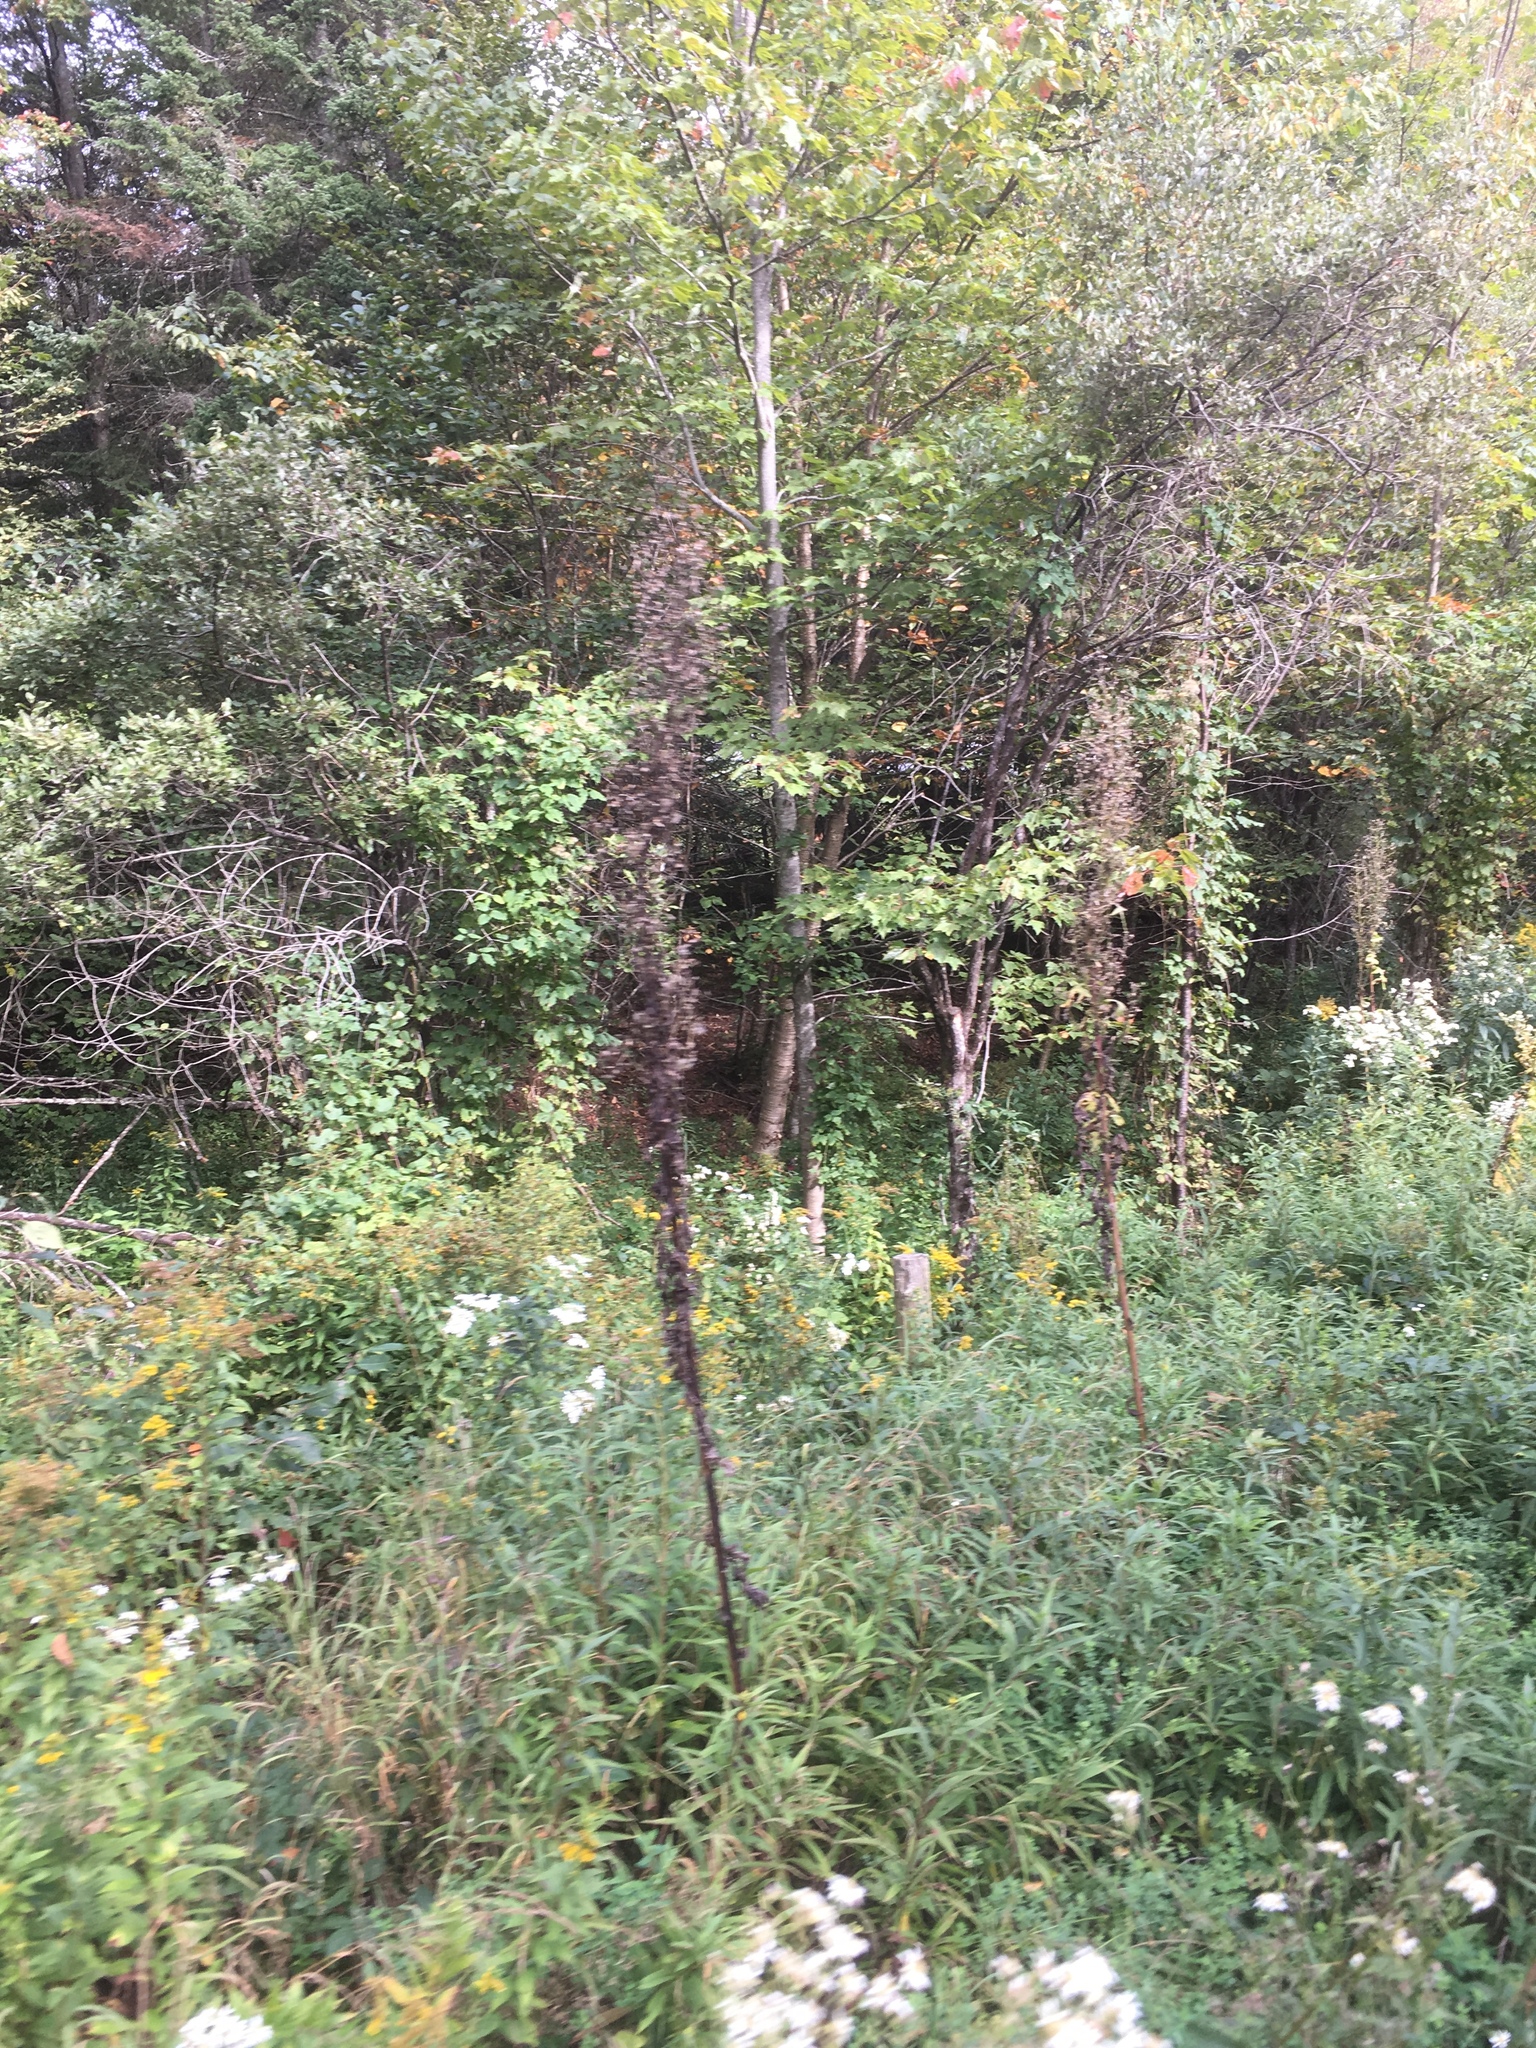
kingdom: Plantae
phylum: Tracheophyta
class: Magnoliopsida
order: Asterales
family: Asteraceae
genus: Lactuca
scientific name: Lactuca biennis
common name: Blue wood lettuce
